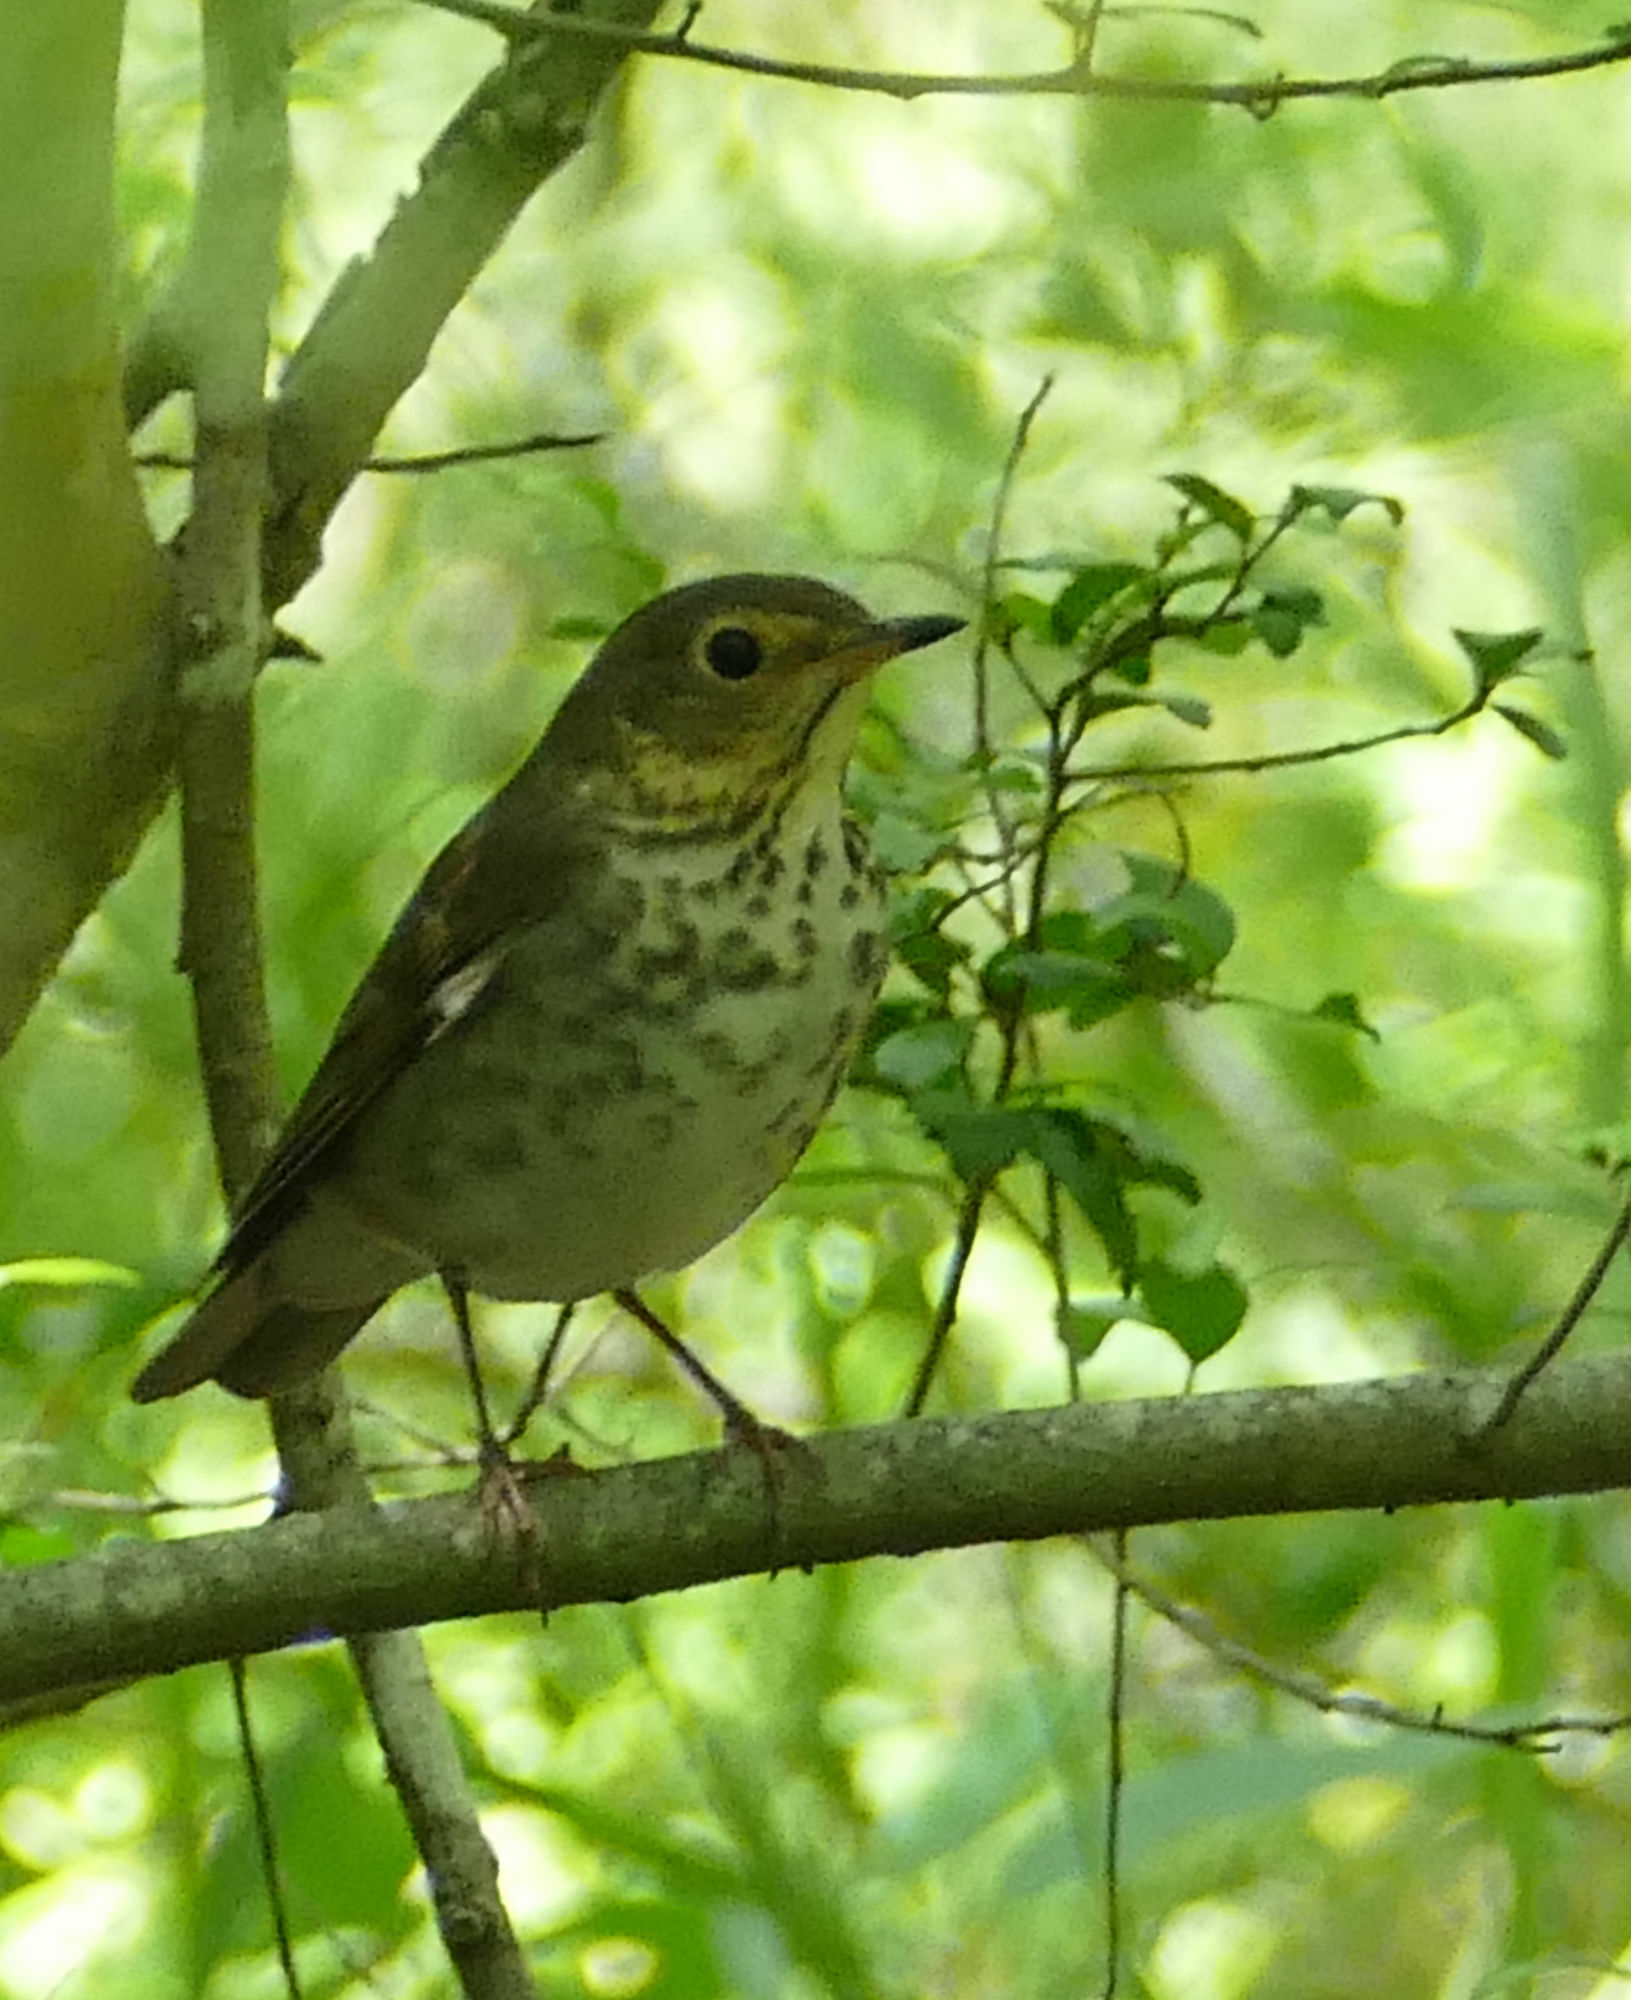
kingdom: Animalia
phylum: Chordata
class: Aves
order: Passeriformes
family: Turdidae
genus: Catharus
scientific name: Catharus ustulatus
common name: Swainson's thrush
